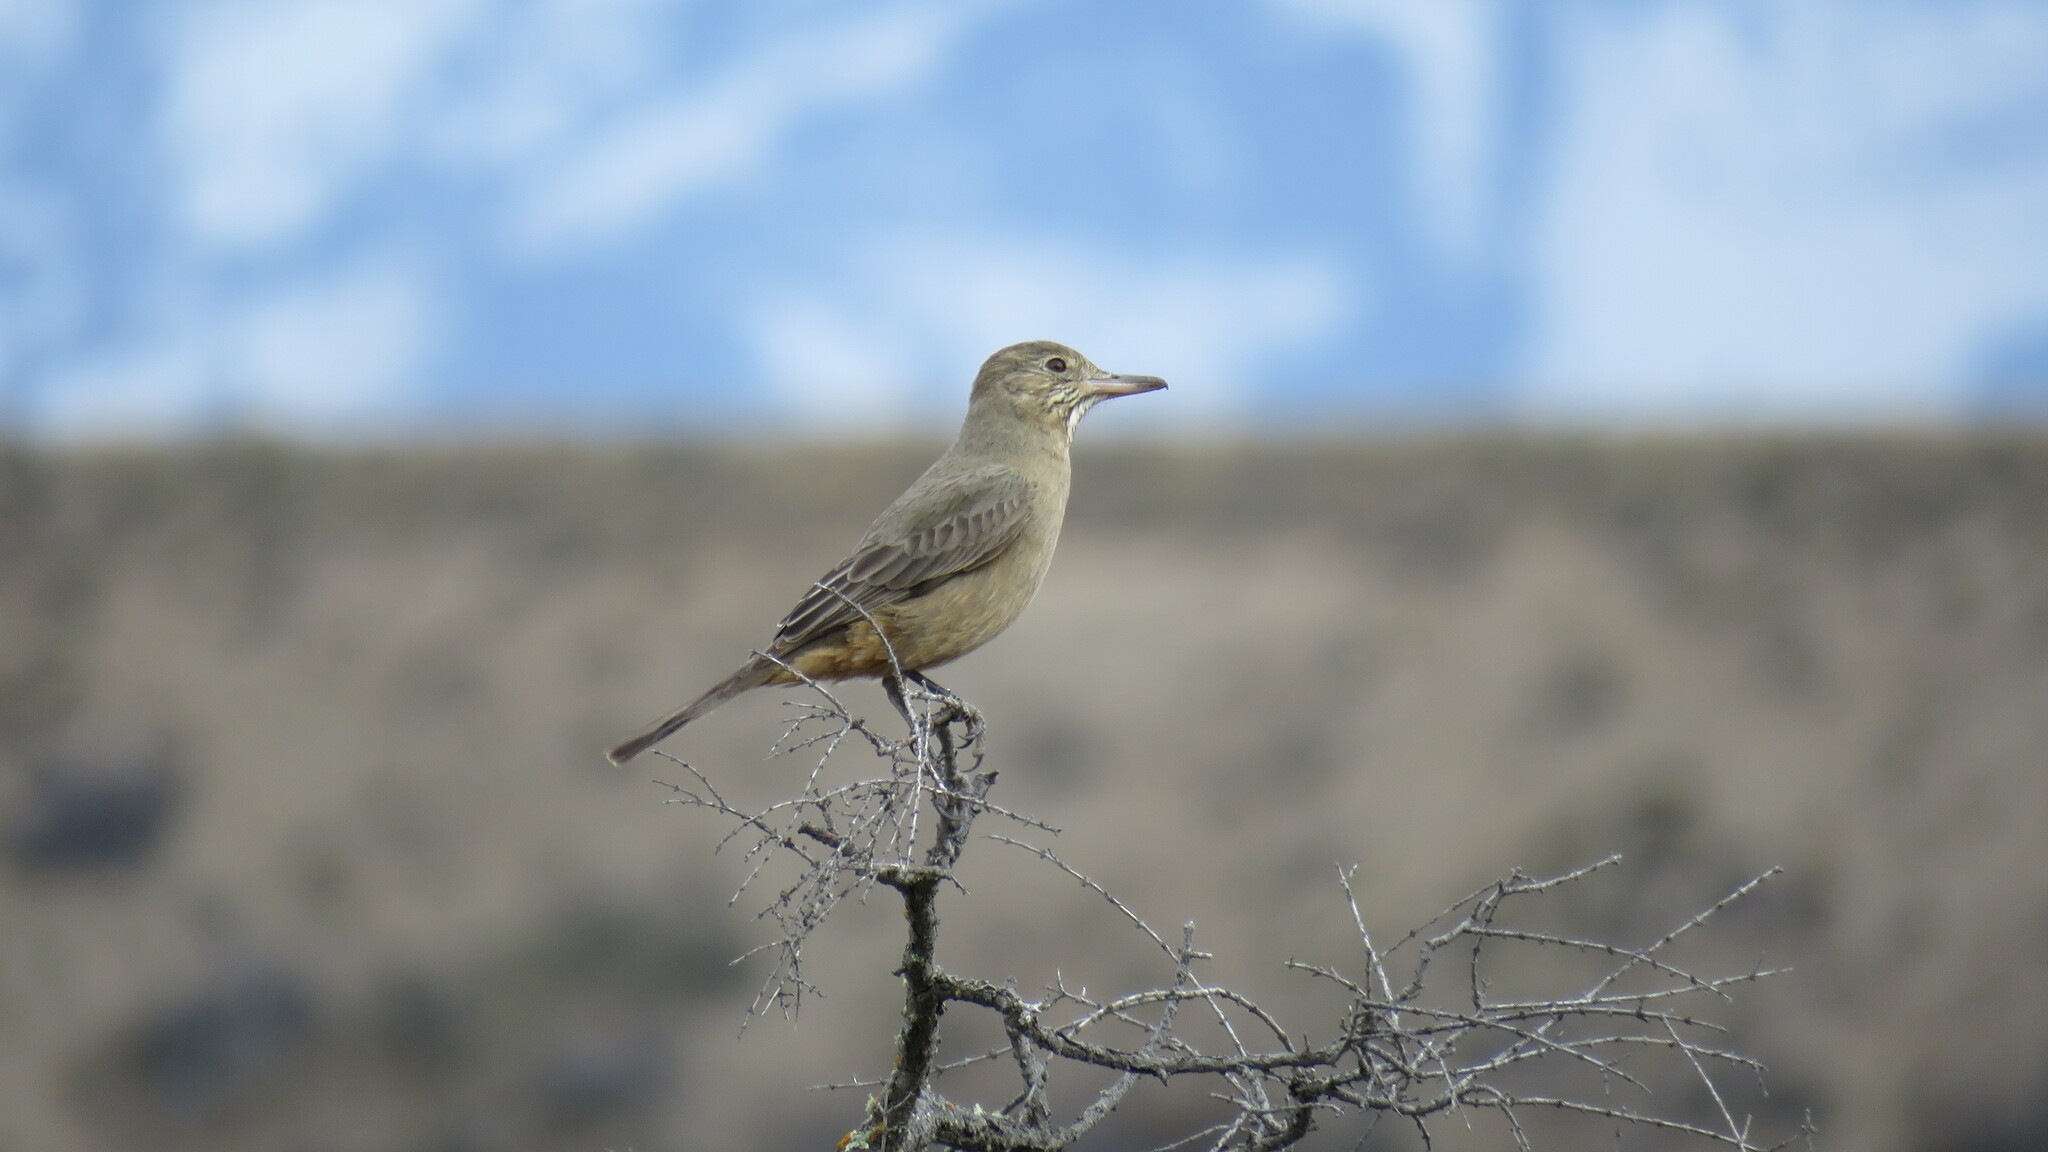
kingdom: Animalia
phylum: Chordata
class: Aves
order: Passeriformes
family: Tyrannidae
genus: Agriornis
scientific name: Agriornis lividus
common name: Great shrike-tyrant
